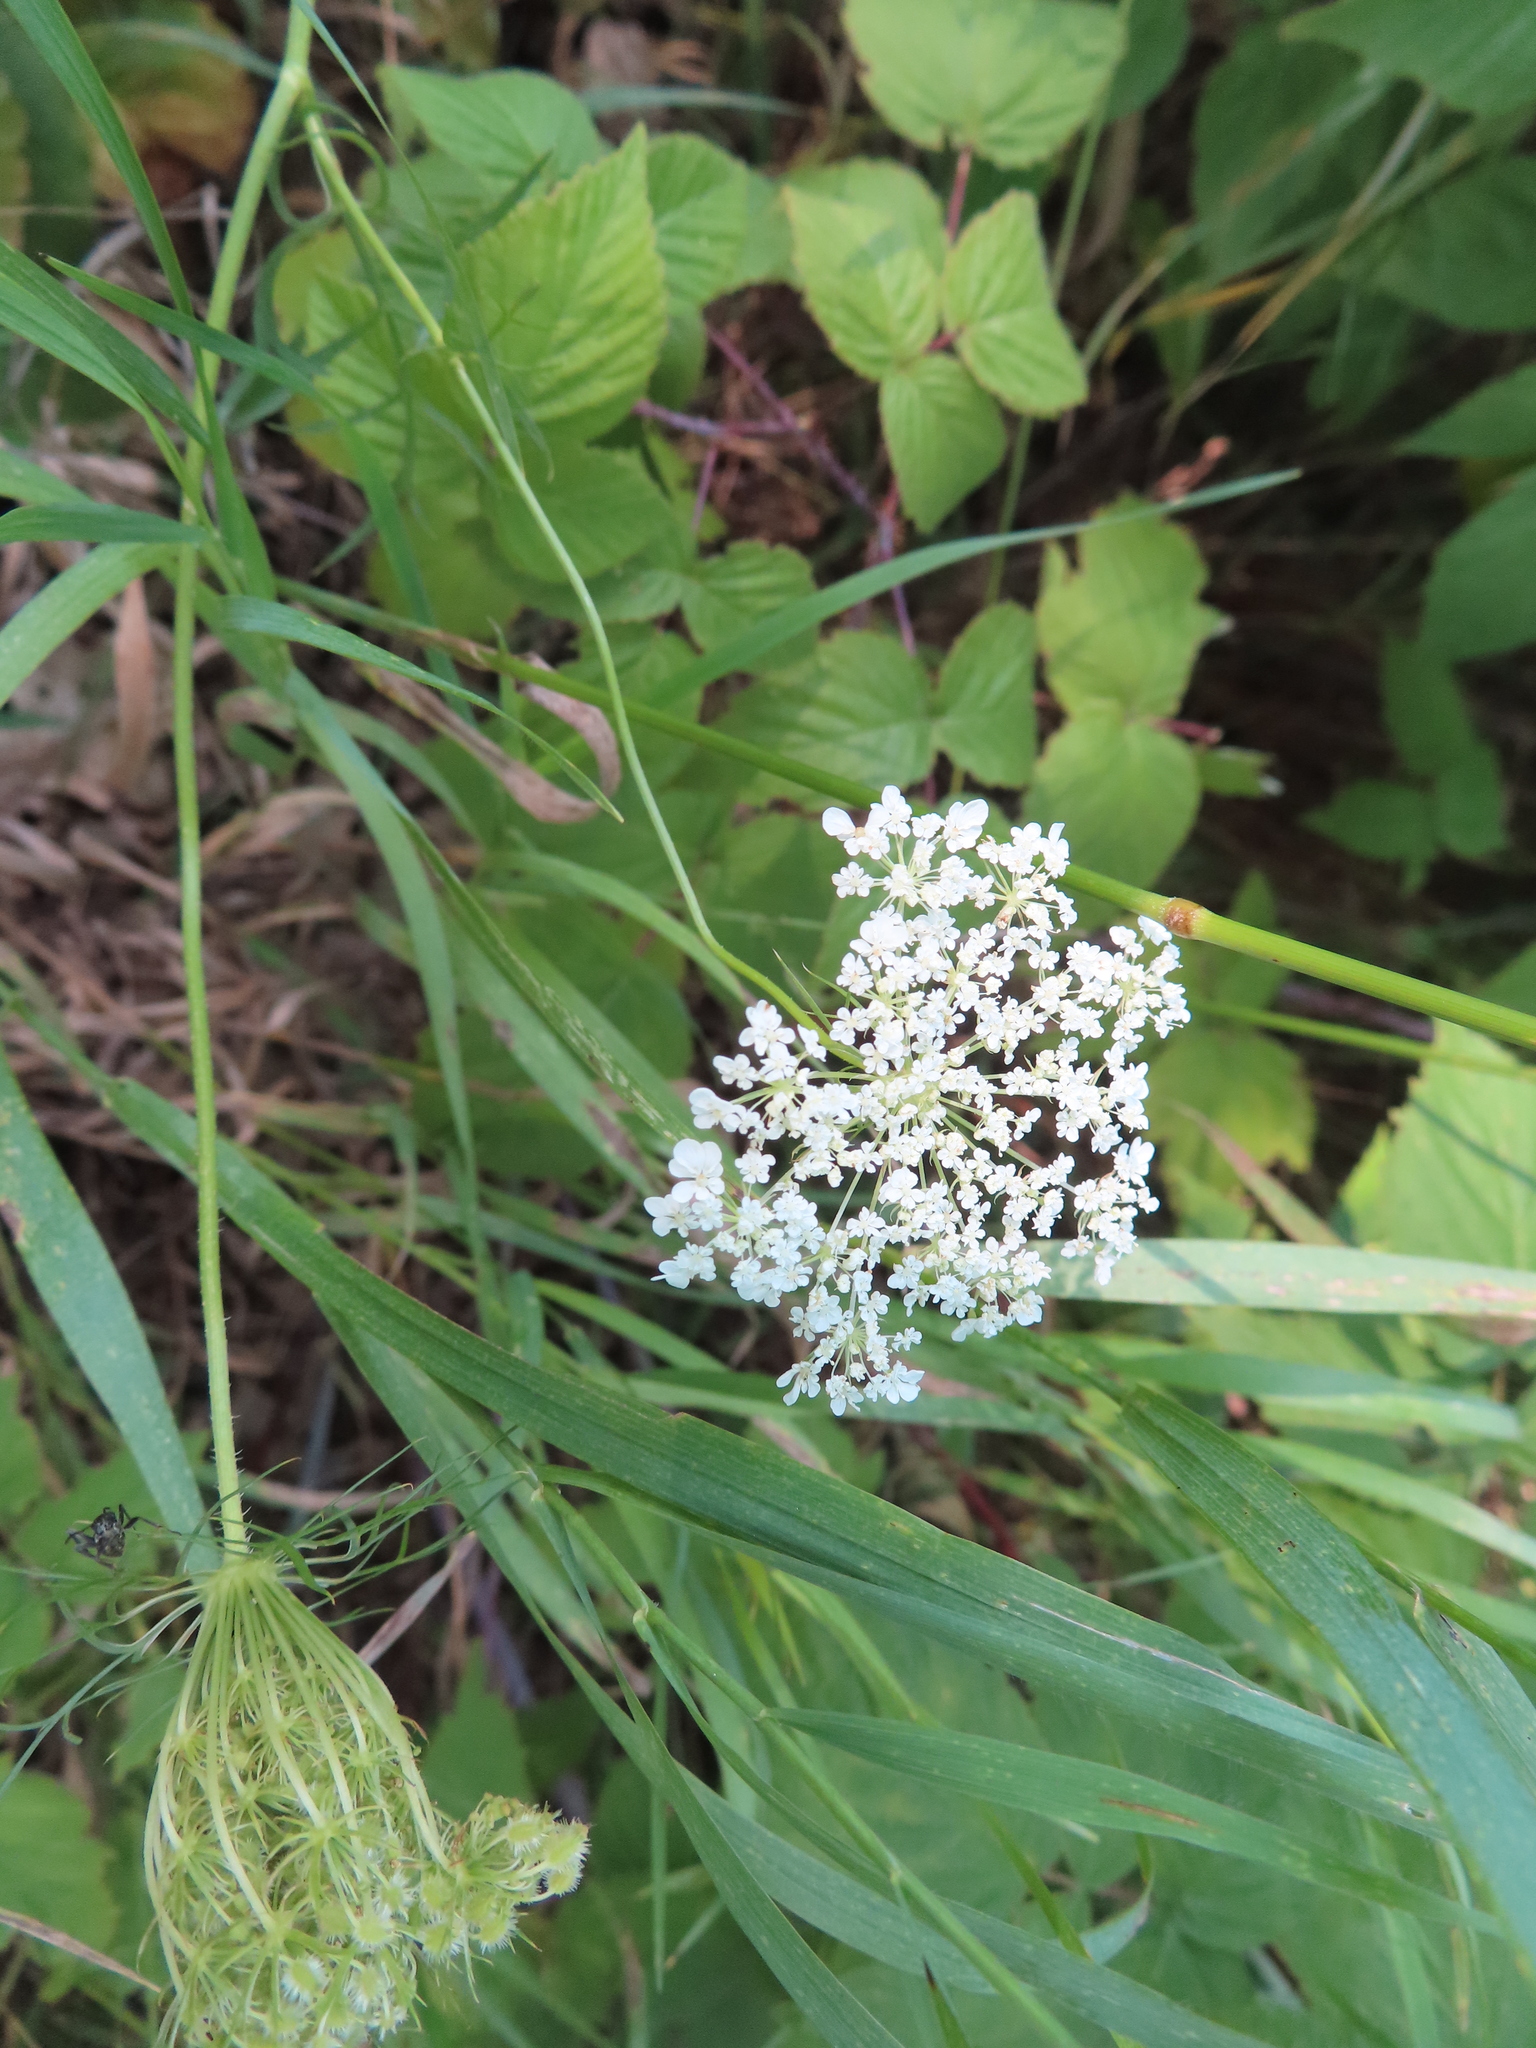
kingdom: Plantae
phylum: Tracheophyta
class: Magnoliopsida
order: Apiales
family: Apiaceae
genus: Daucus
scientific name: Daucus carota
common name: Wild carrot
